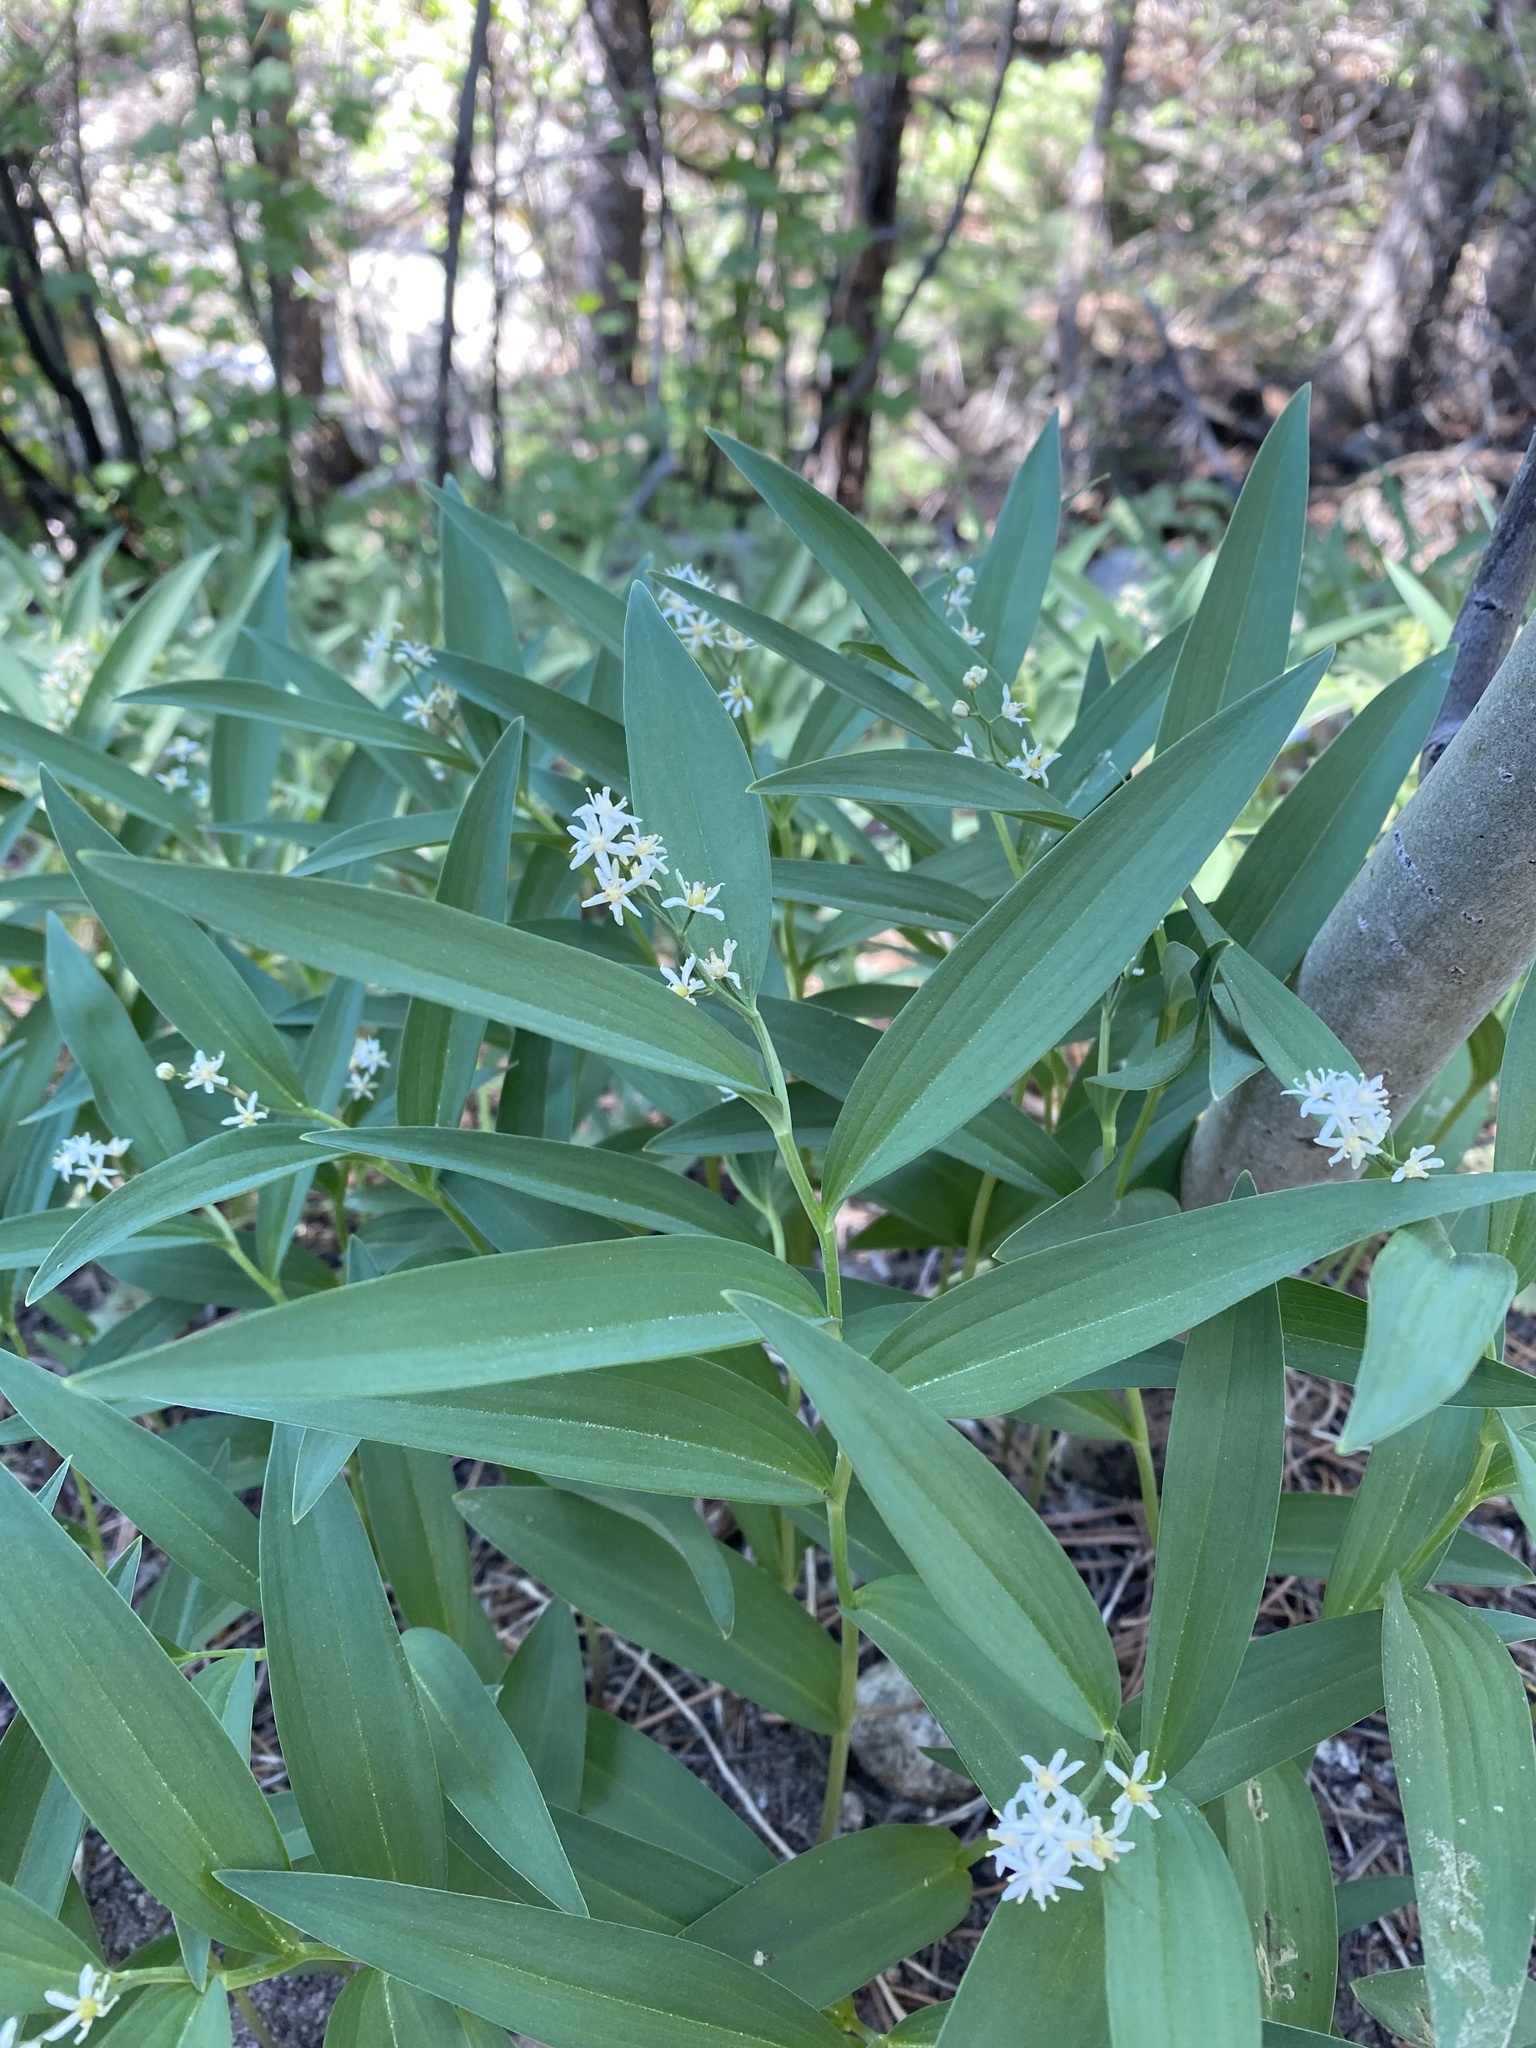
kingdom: Plantae
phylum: Tracheophyta
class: Liliopsida
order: Asparagales
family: Asparagaceae
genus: Maianthemum
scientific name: Maianthemum stellatum
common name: Little false solomon's seal
